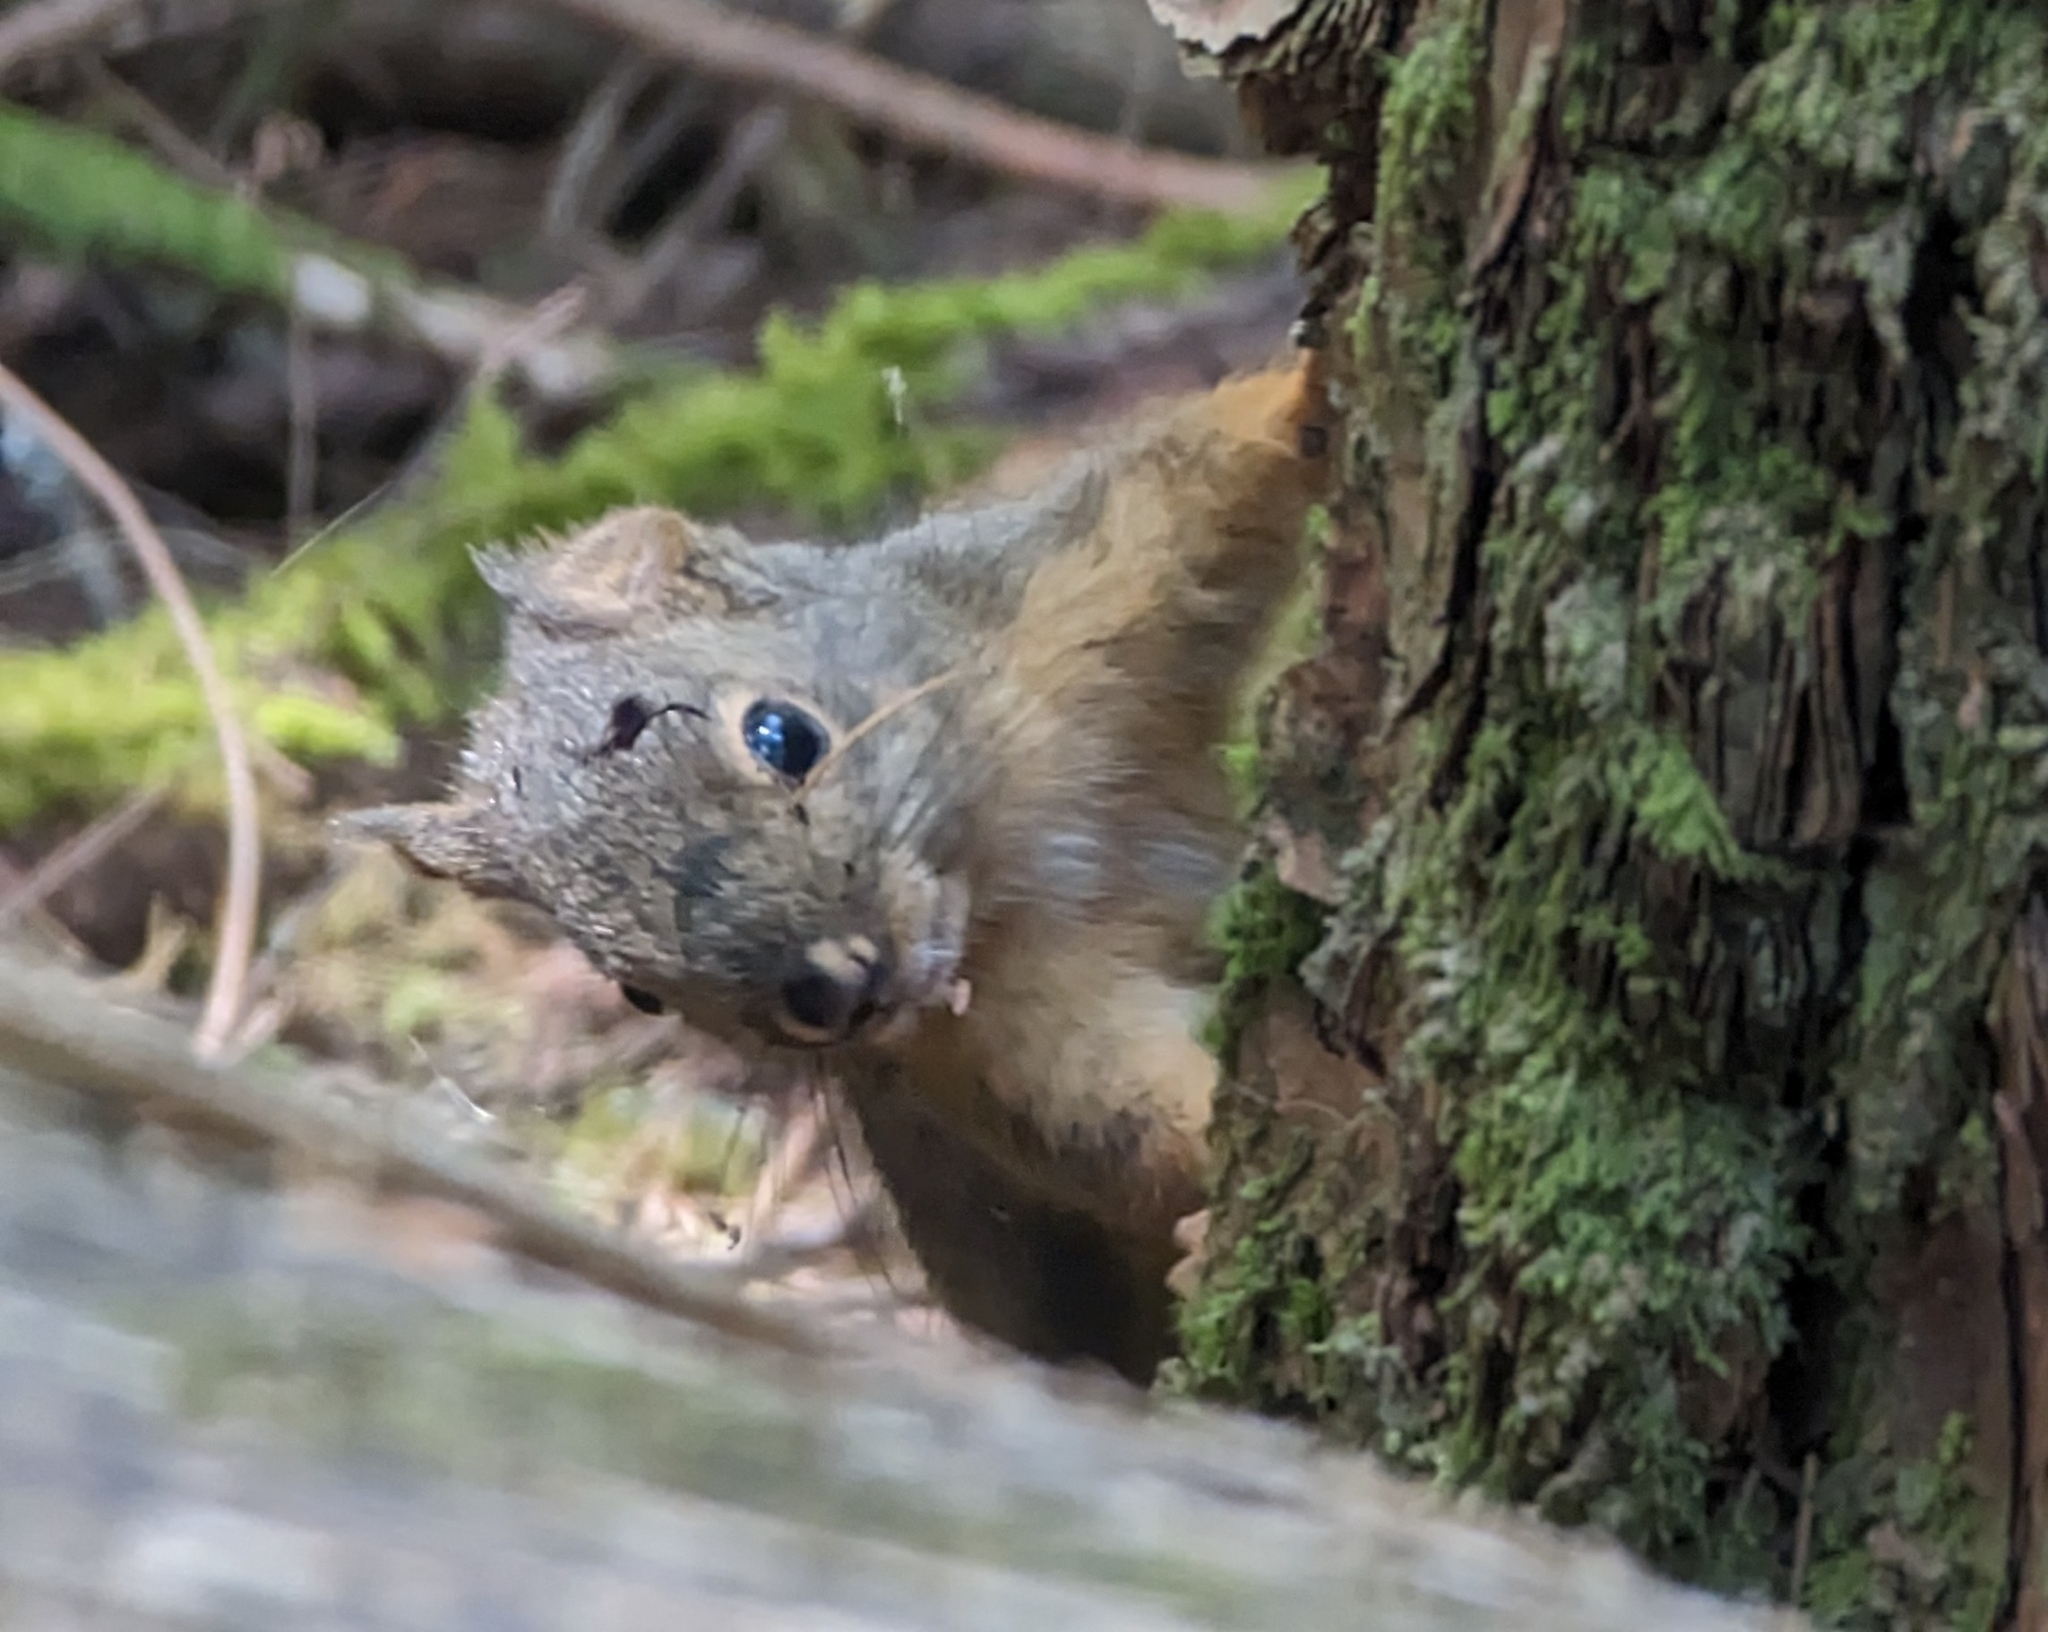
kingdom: Animalia
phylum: Chordata
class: Mammalia
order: Rodentia
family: Sciuridae
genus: Tamiasciurus
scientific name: Tamiasciurus douglasii
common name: Douglas's squirrel
